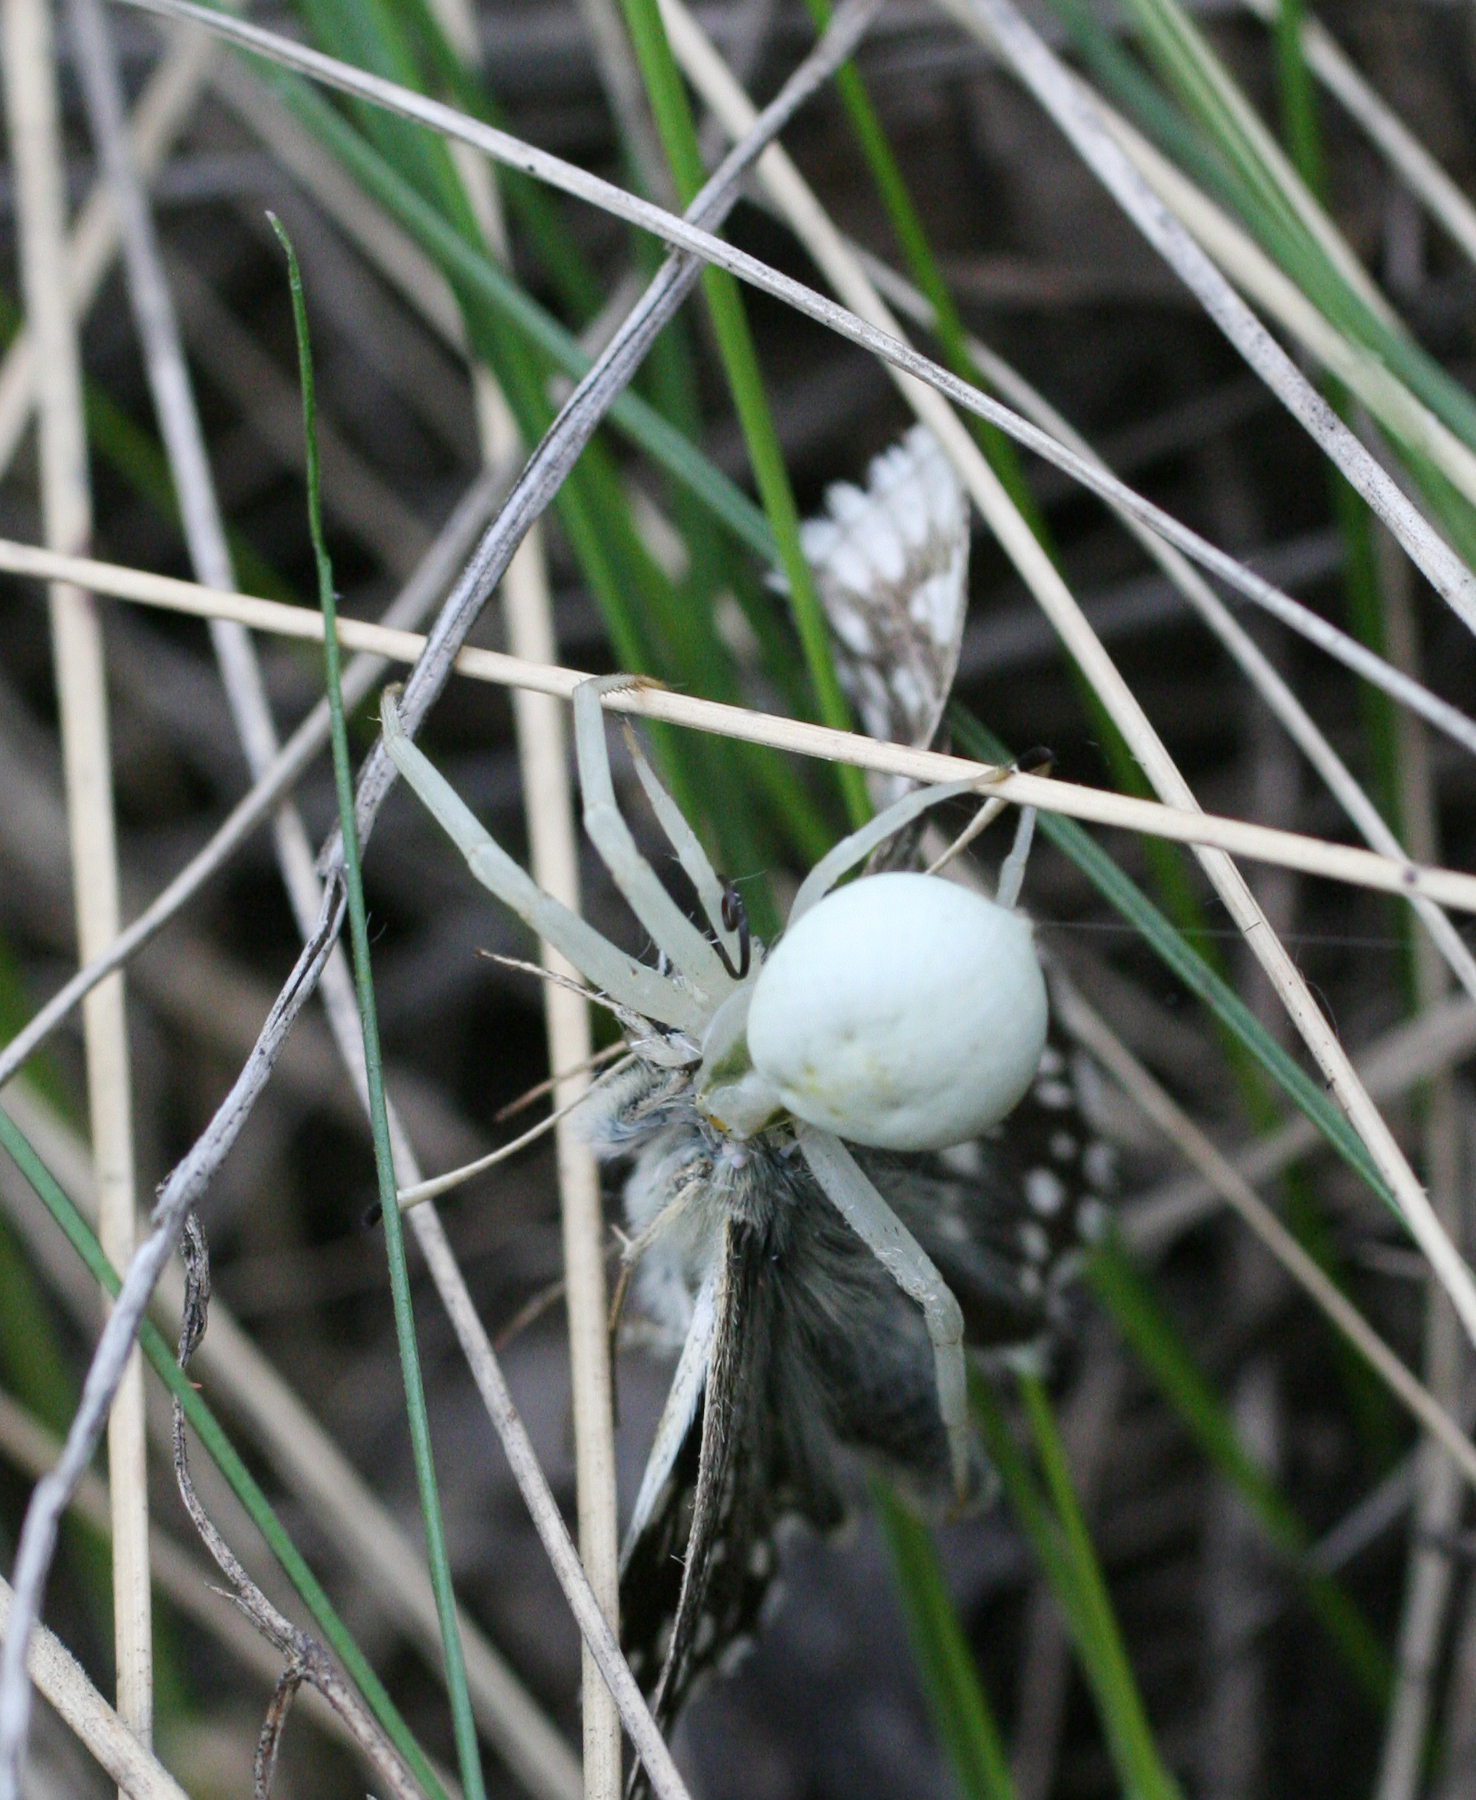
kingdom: Animalia
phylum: Arthropoda
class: Arachnida
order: Araneae
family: Thomisidae
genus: Misumena
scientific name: Misumena vatia
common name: Goldenrod crab spider
